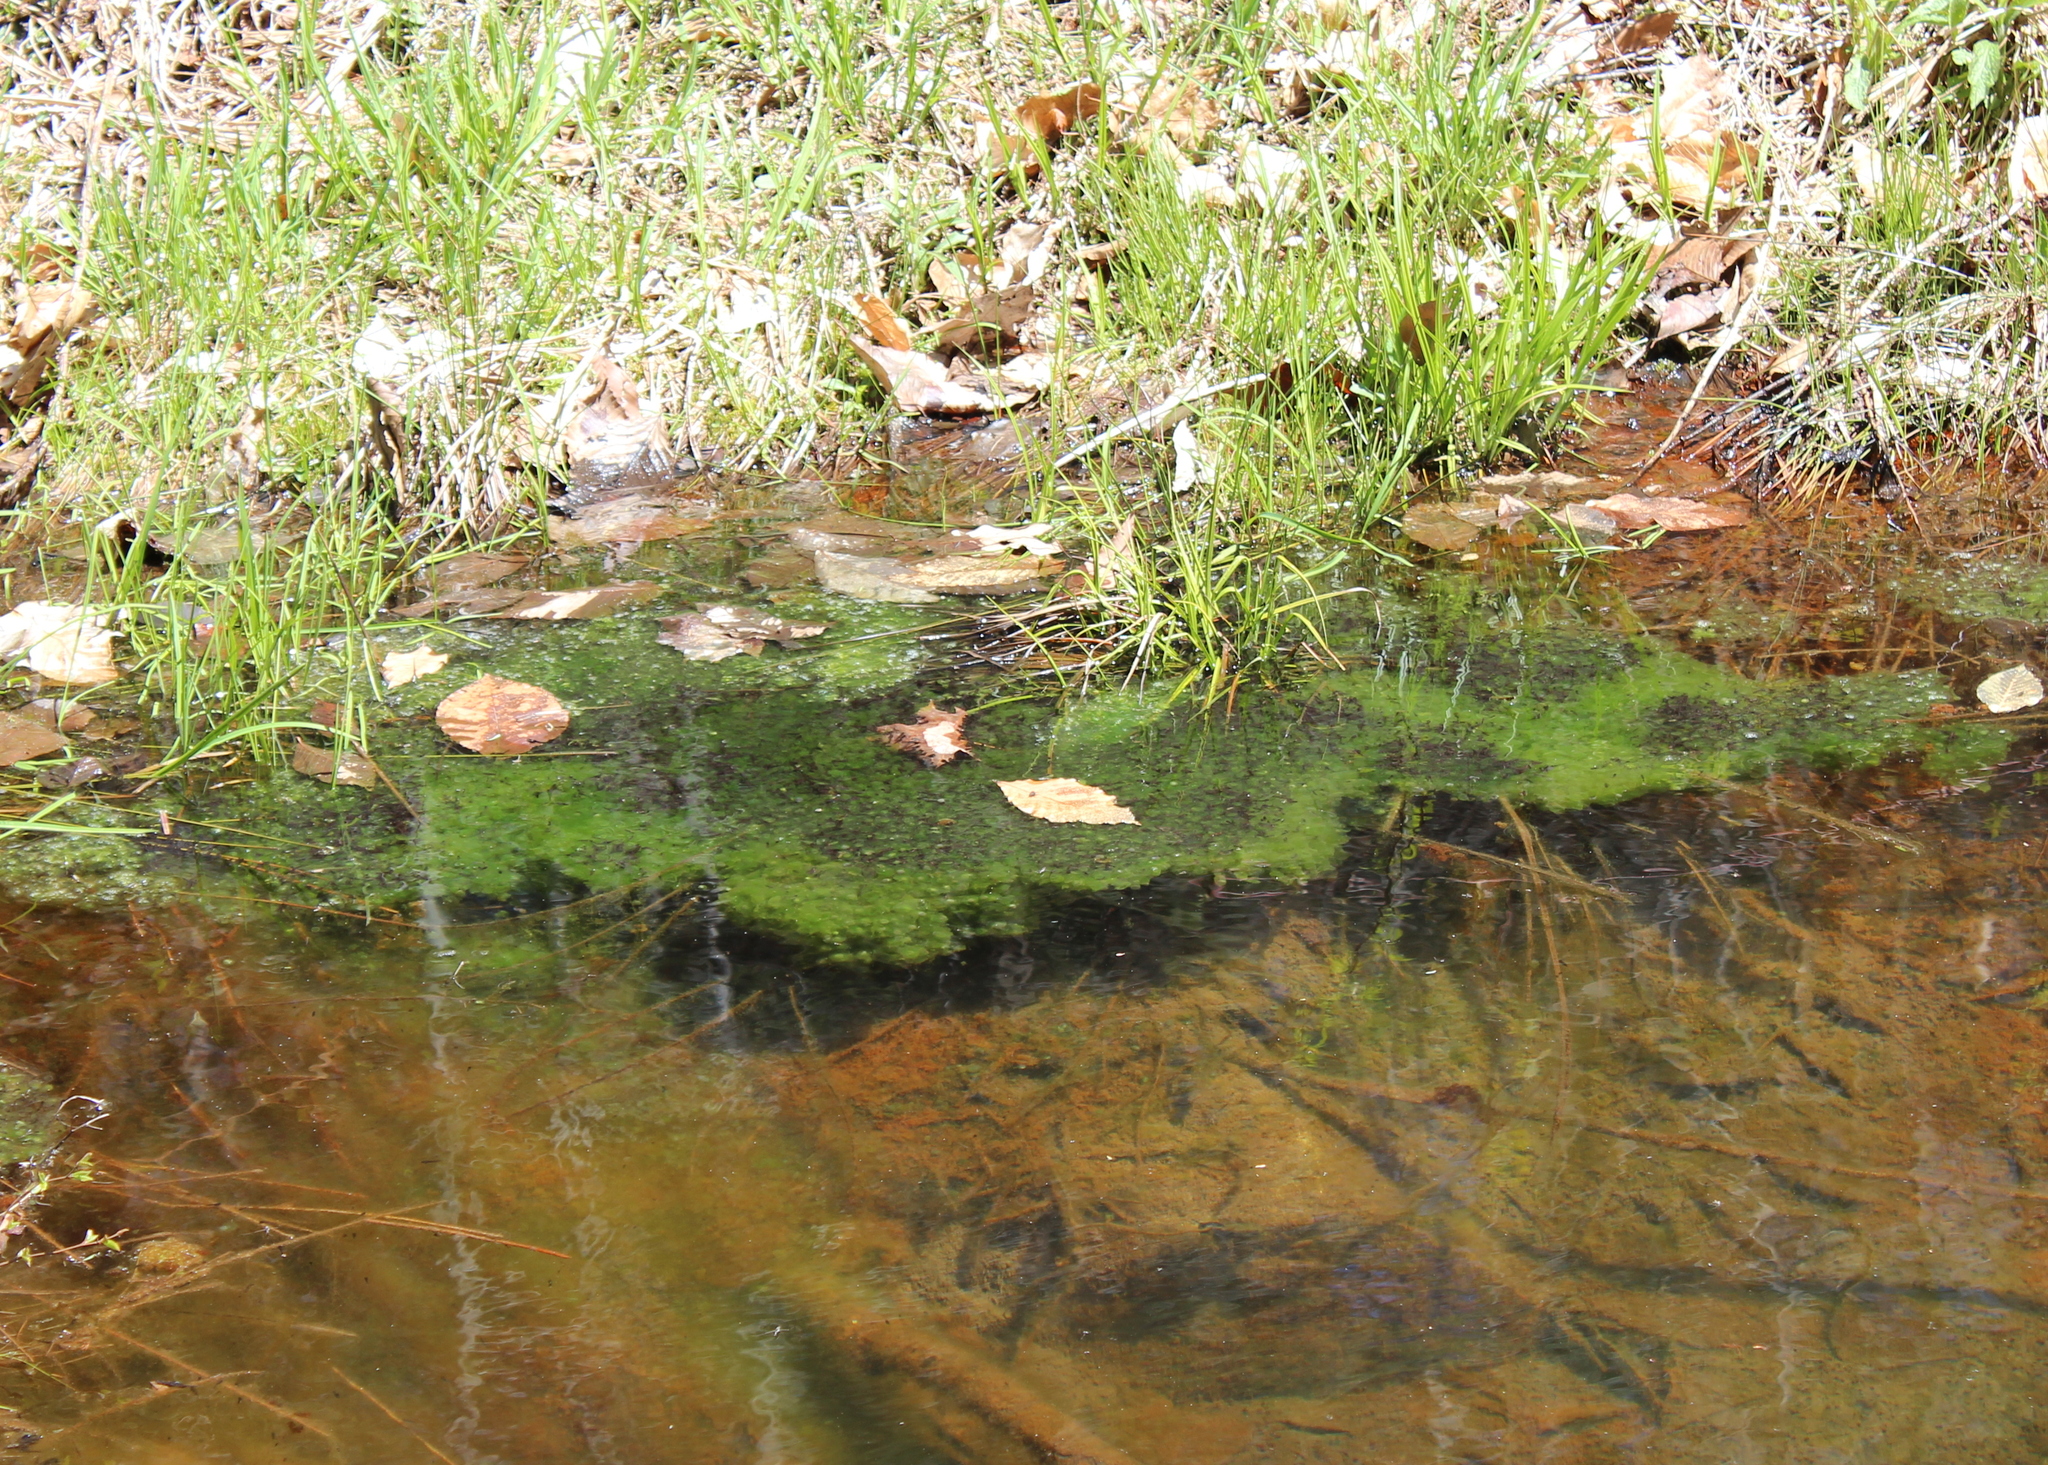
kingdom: Animalia
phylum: Chordata
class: Amphibia
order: Anura
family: Ranidae
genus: Lithobates
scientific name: Lithobates sylvaticus
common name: Wood frog
